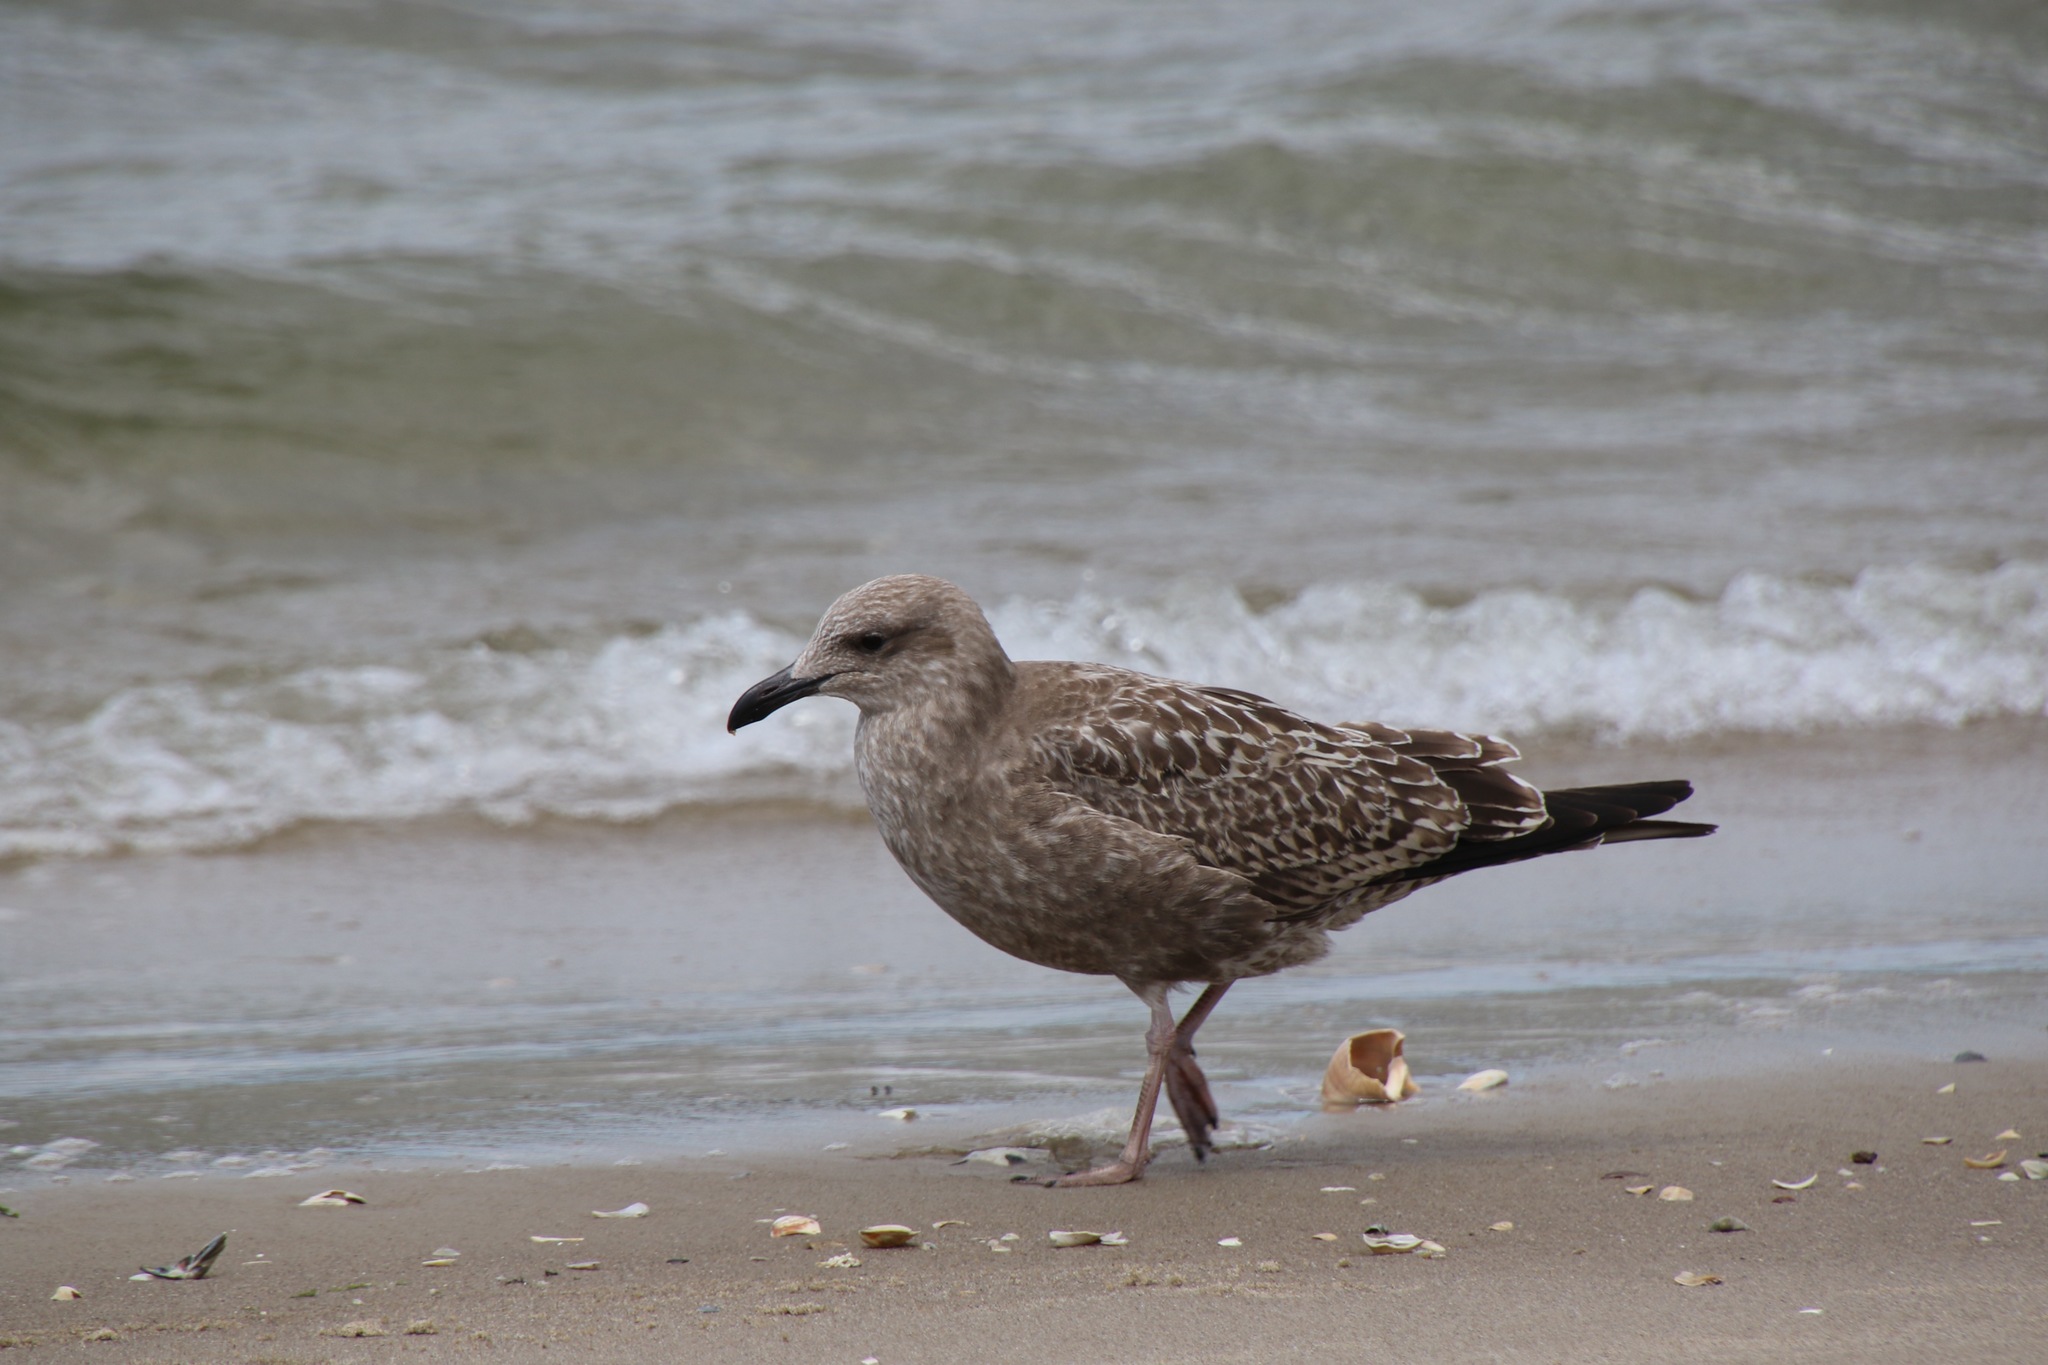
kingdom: Animalia
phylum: Chordata
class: Aves
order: Charadriiformes
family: Laridae
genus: Larus
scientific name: Larus argentatus
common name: Herring gull
